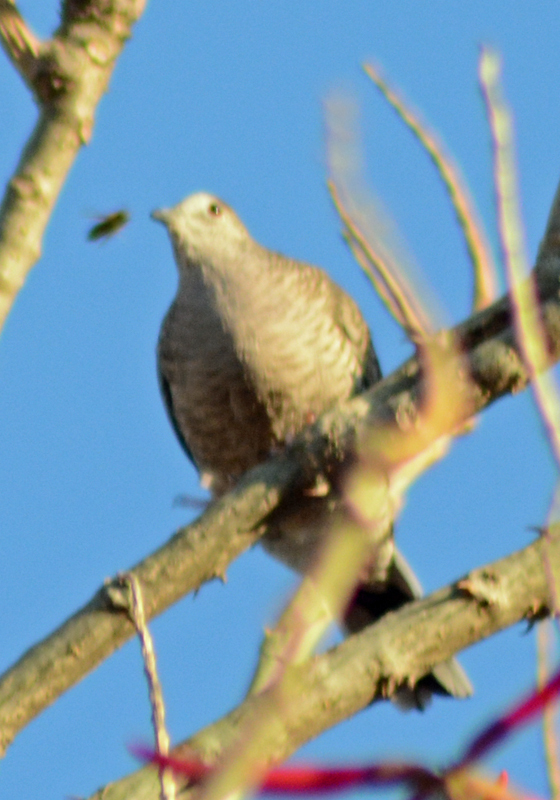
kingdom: Animalia
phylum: Chordata
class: Aves
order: Columbiformes
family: Columbidae
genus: Columbina
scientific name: Columbina inca
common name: Inca dove
